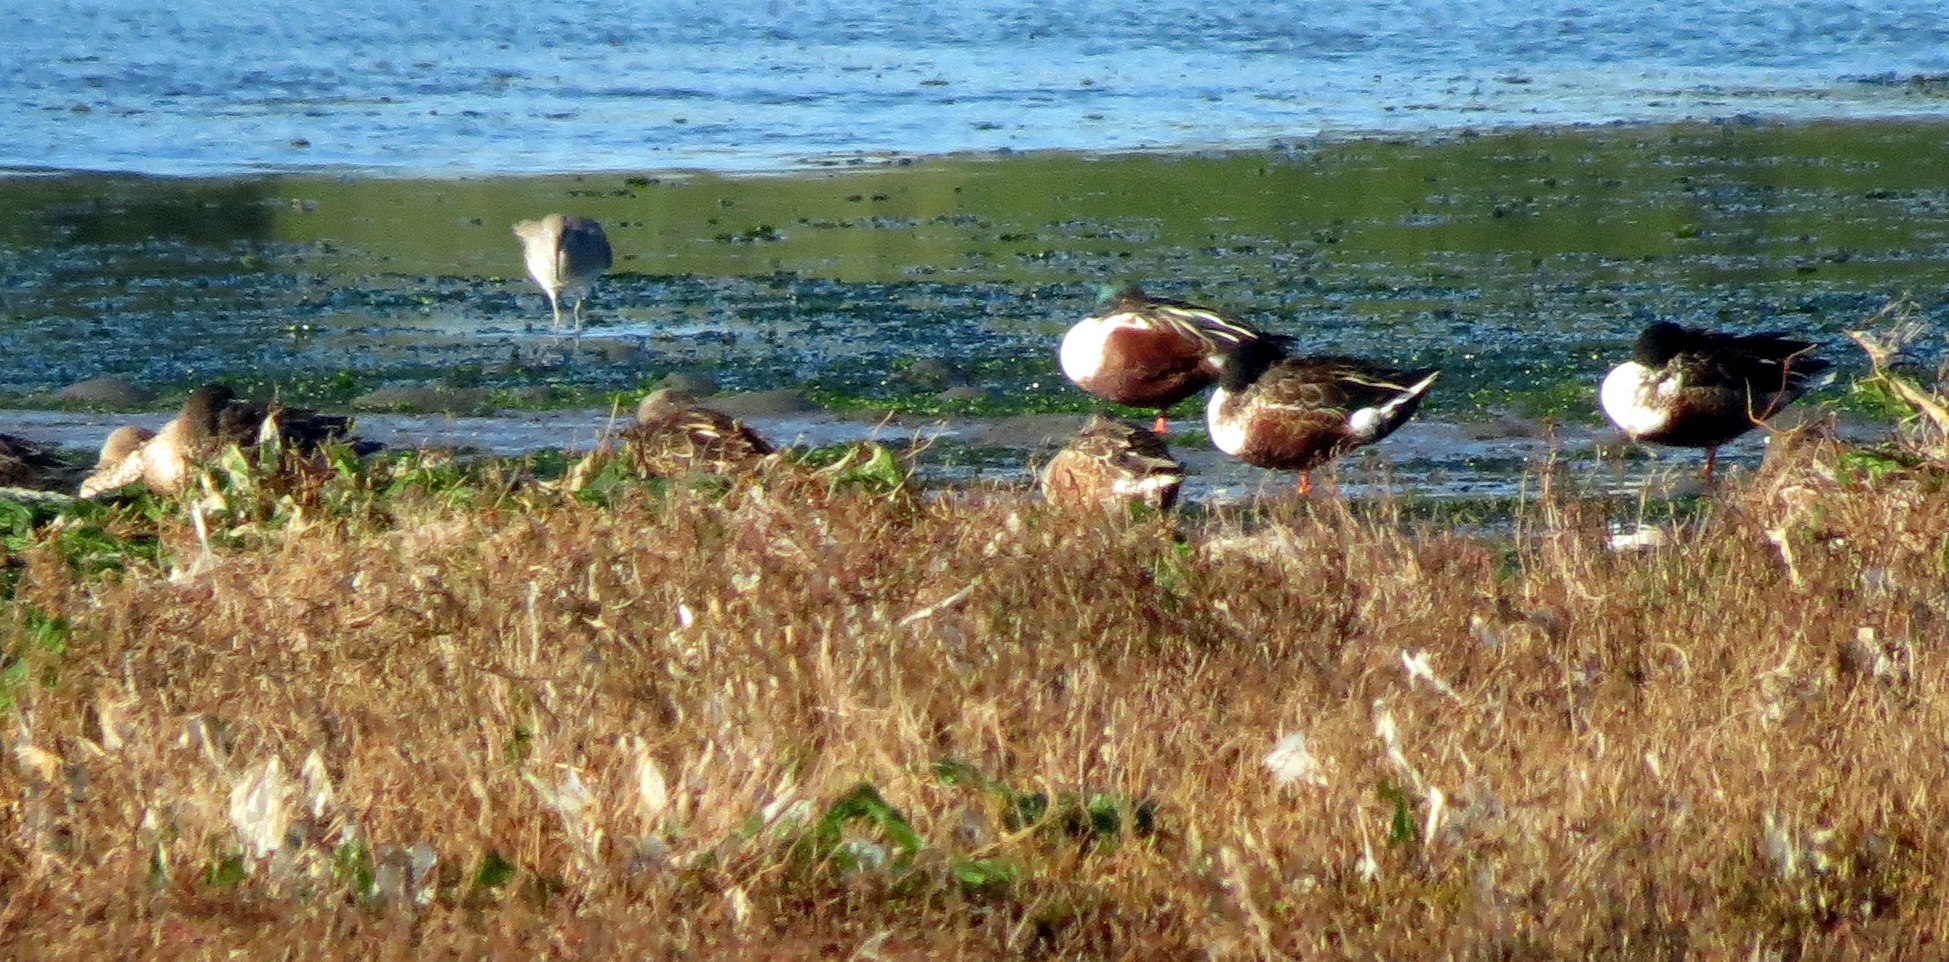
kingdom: Animalia
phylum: Chordata
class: Aves
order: Anseriformes
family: Anatidae
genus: Spatula
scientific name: Spatula clypeata
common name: Northern shoveler
